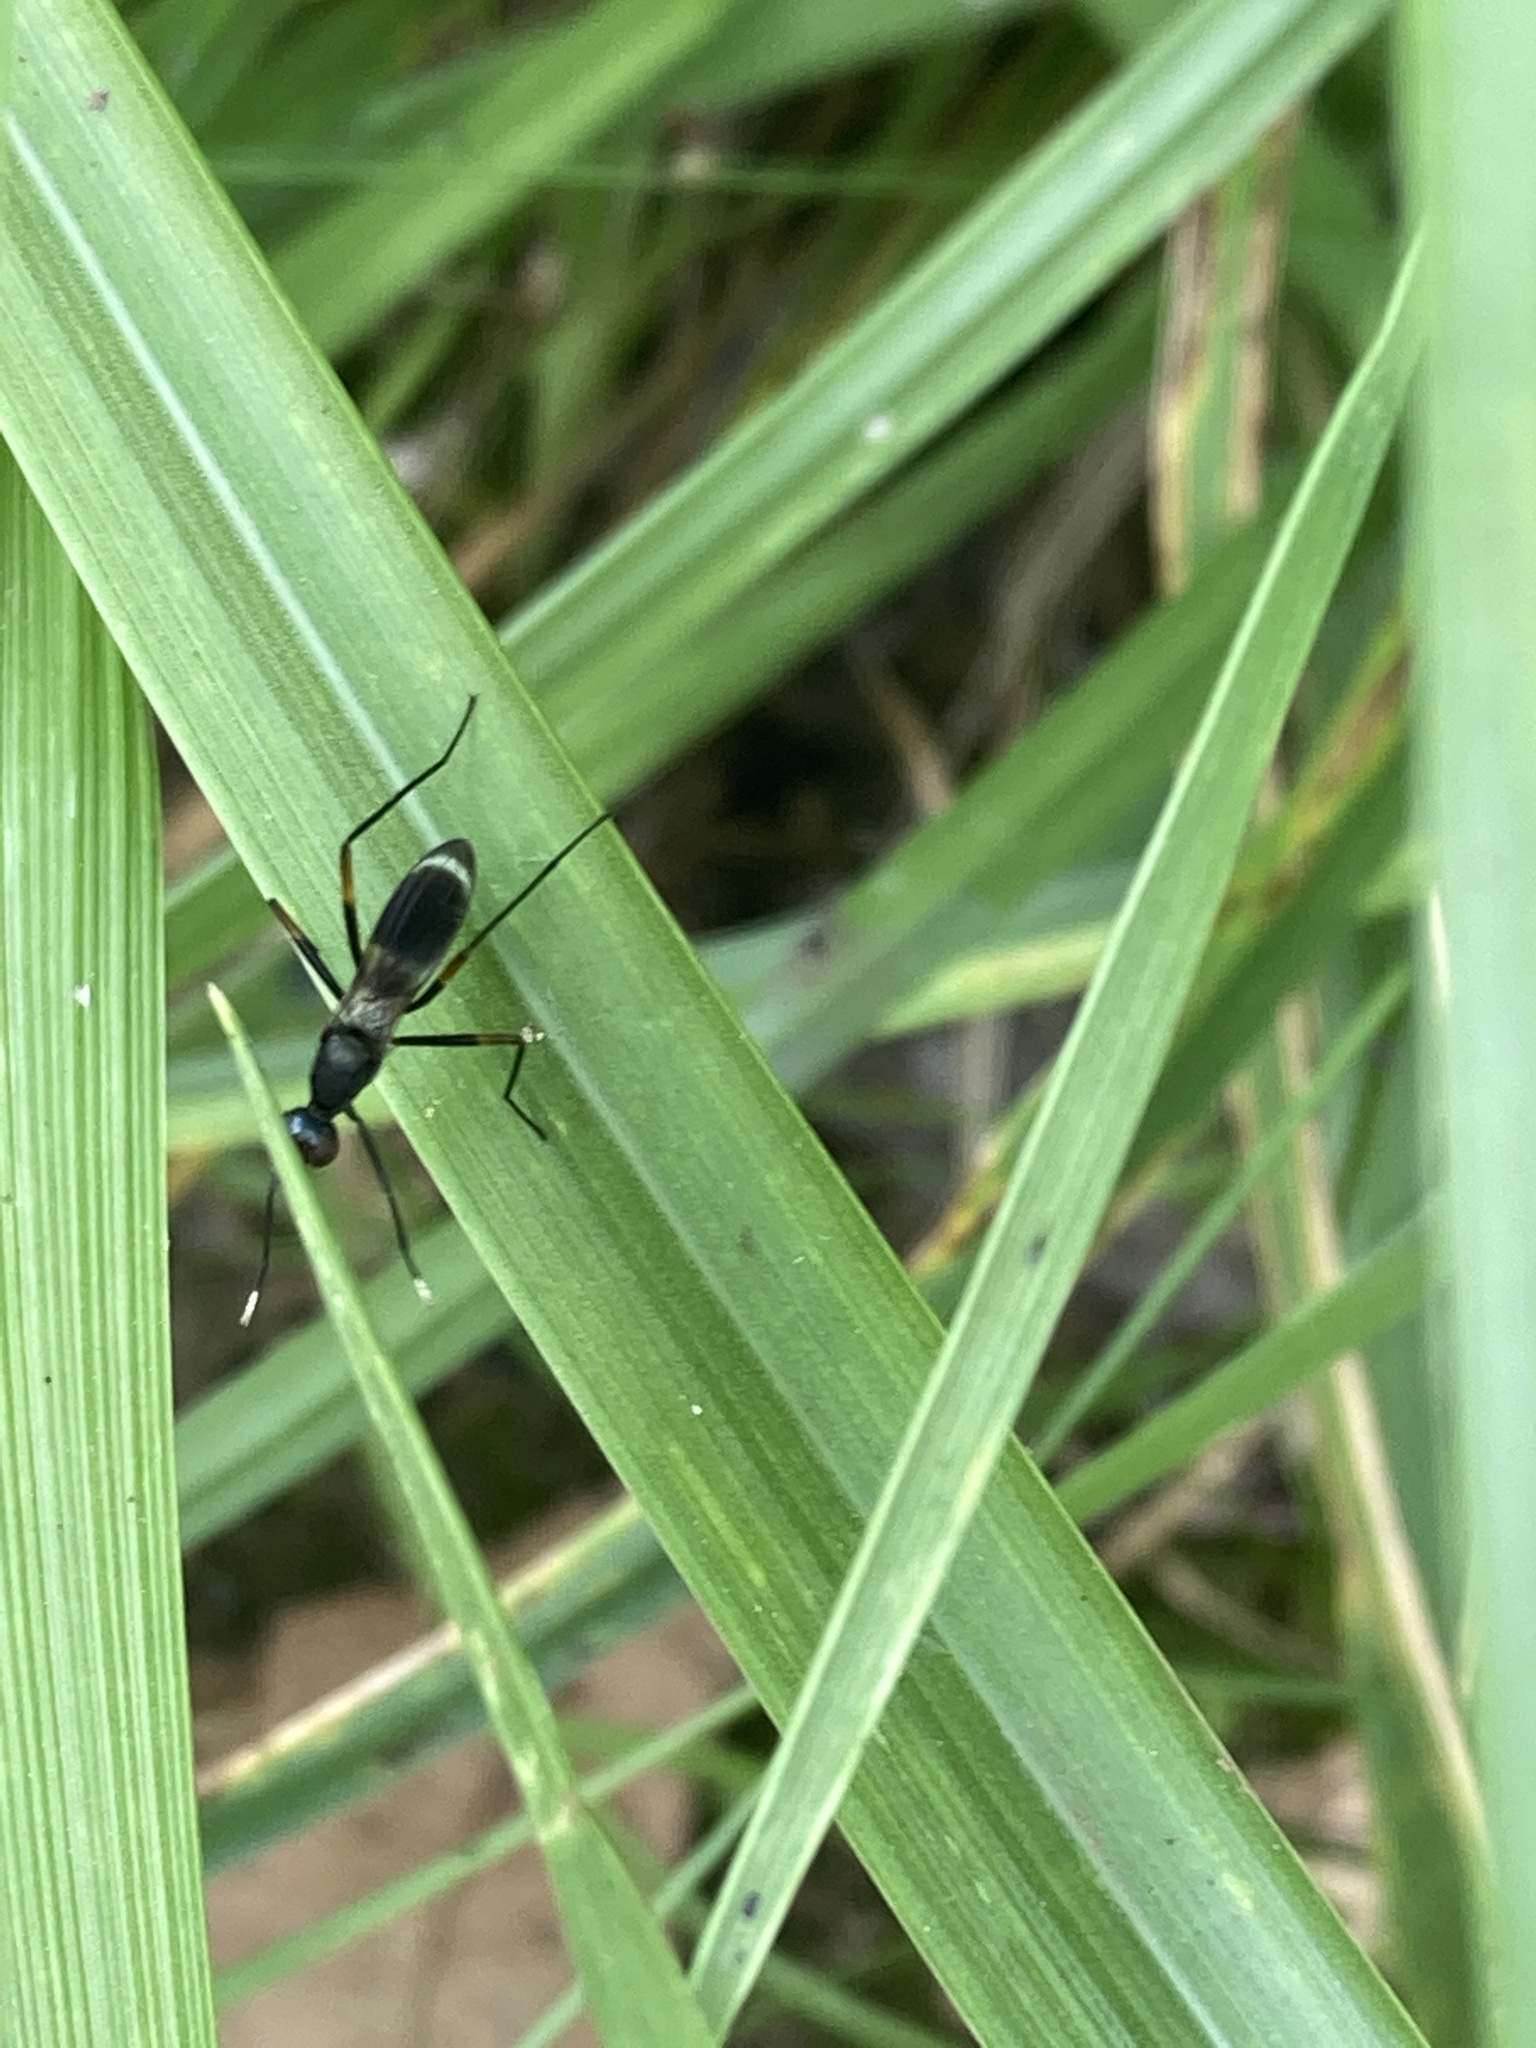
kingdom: Animalia
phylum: Arthropoda
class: Insecta
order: Diptera
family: Micropezidae
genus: Taeniaptera
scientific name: Taeniaptera trivittata
